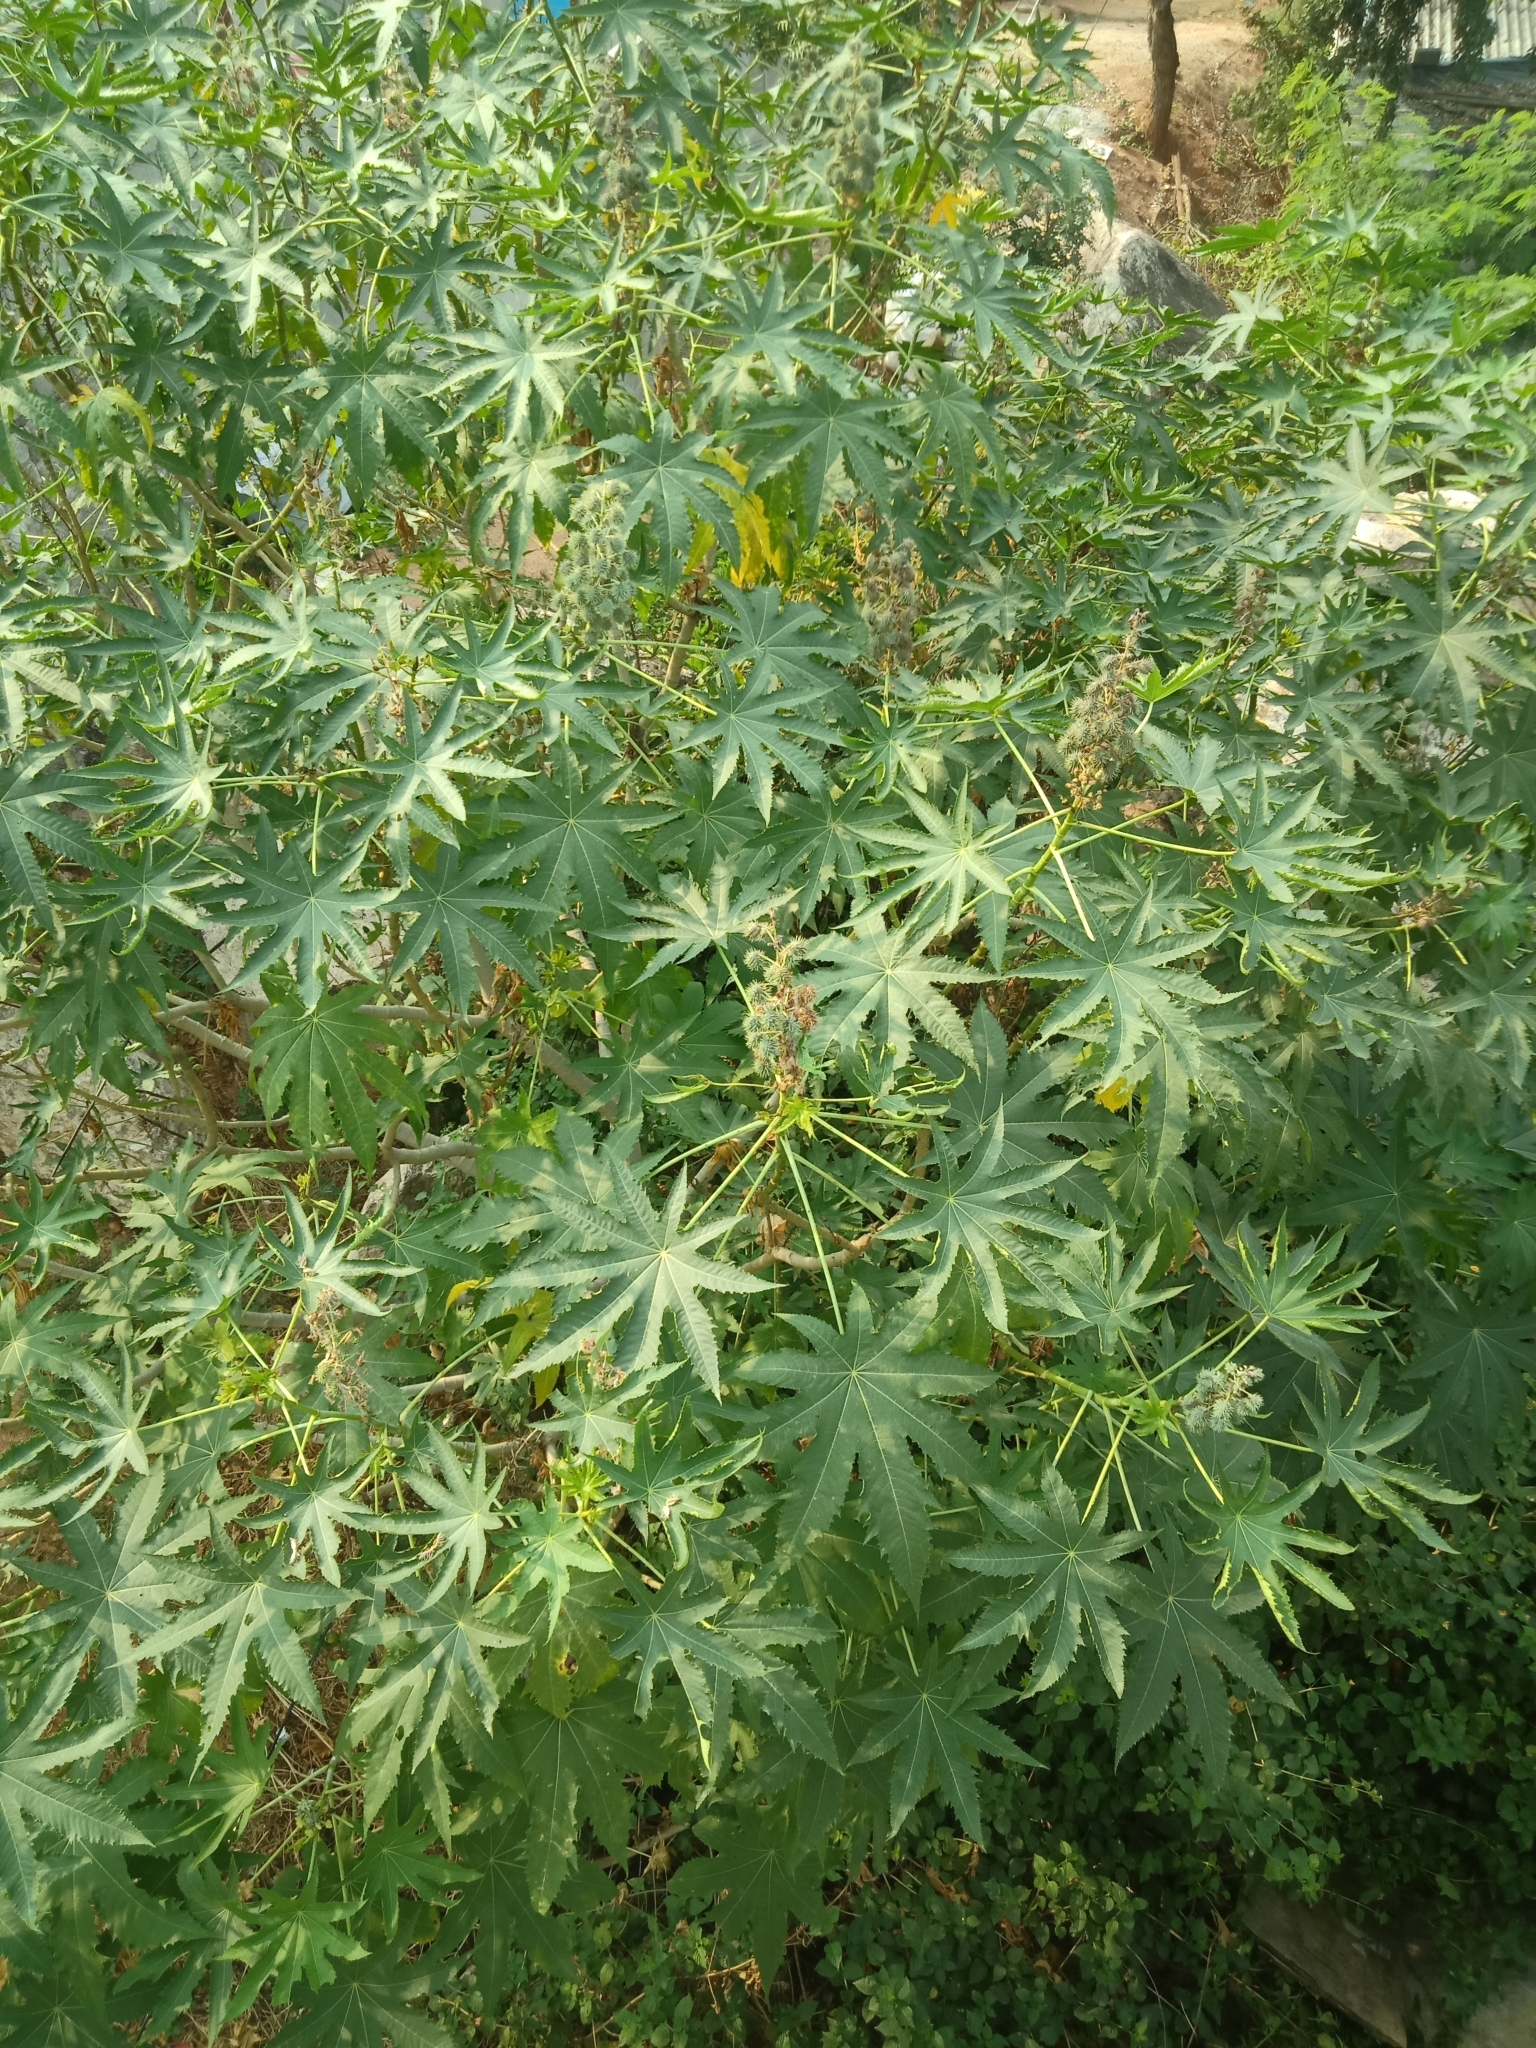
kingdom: Plantae
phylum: Tracheophyta
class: Magnoliopsida
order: Malpighiales
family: Euphorbiaceae
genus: Ricinus
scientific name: Ricinus communis
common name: Castor-oil-plant
